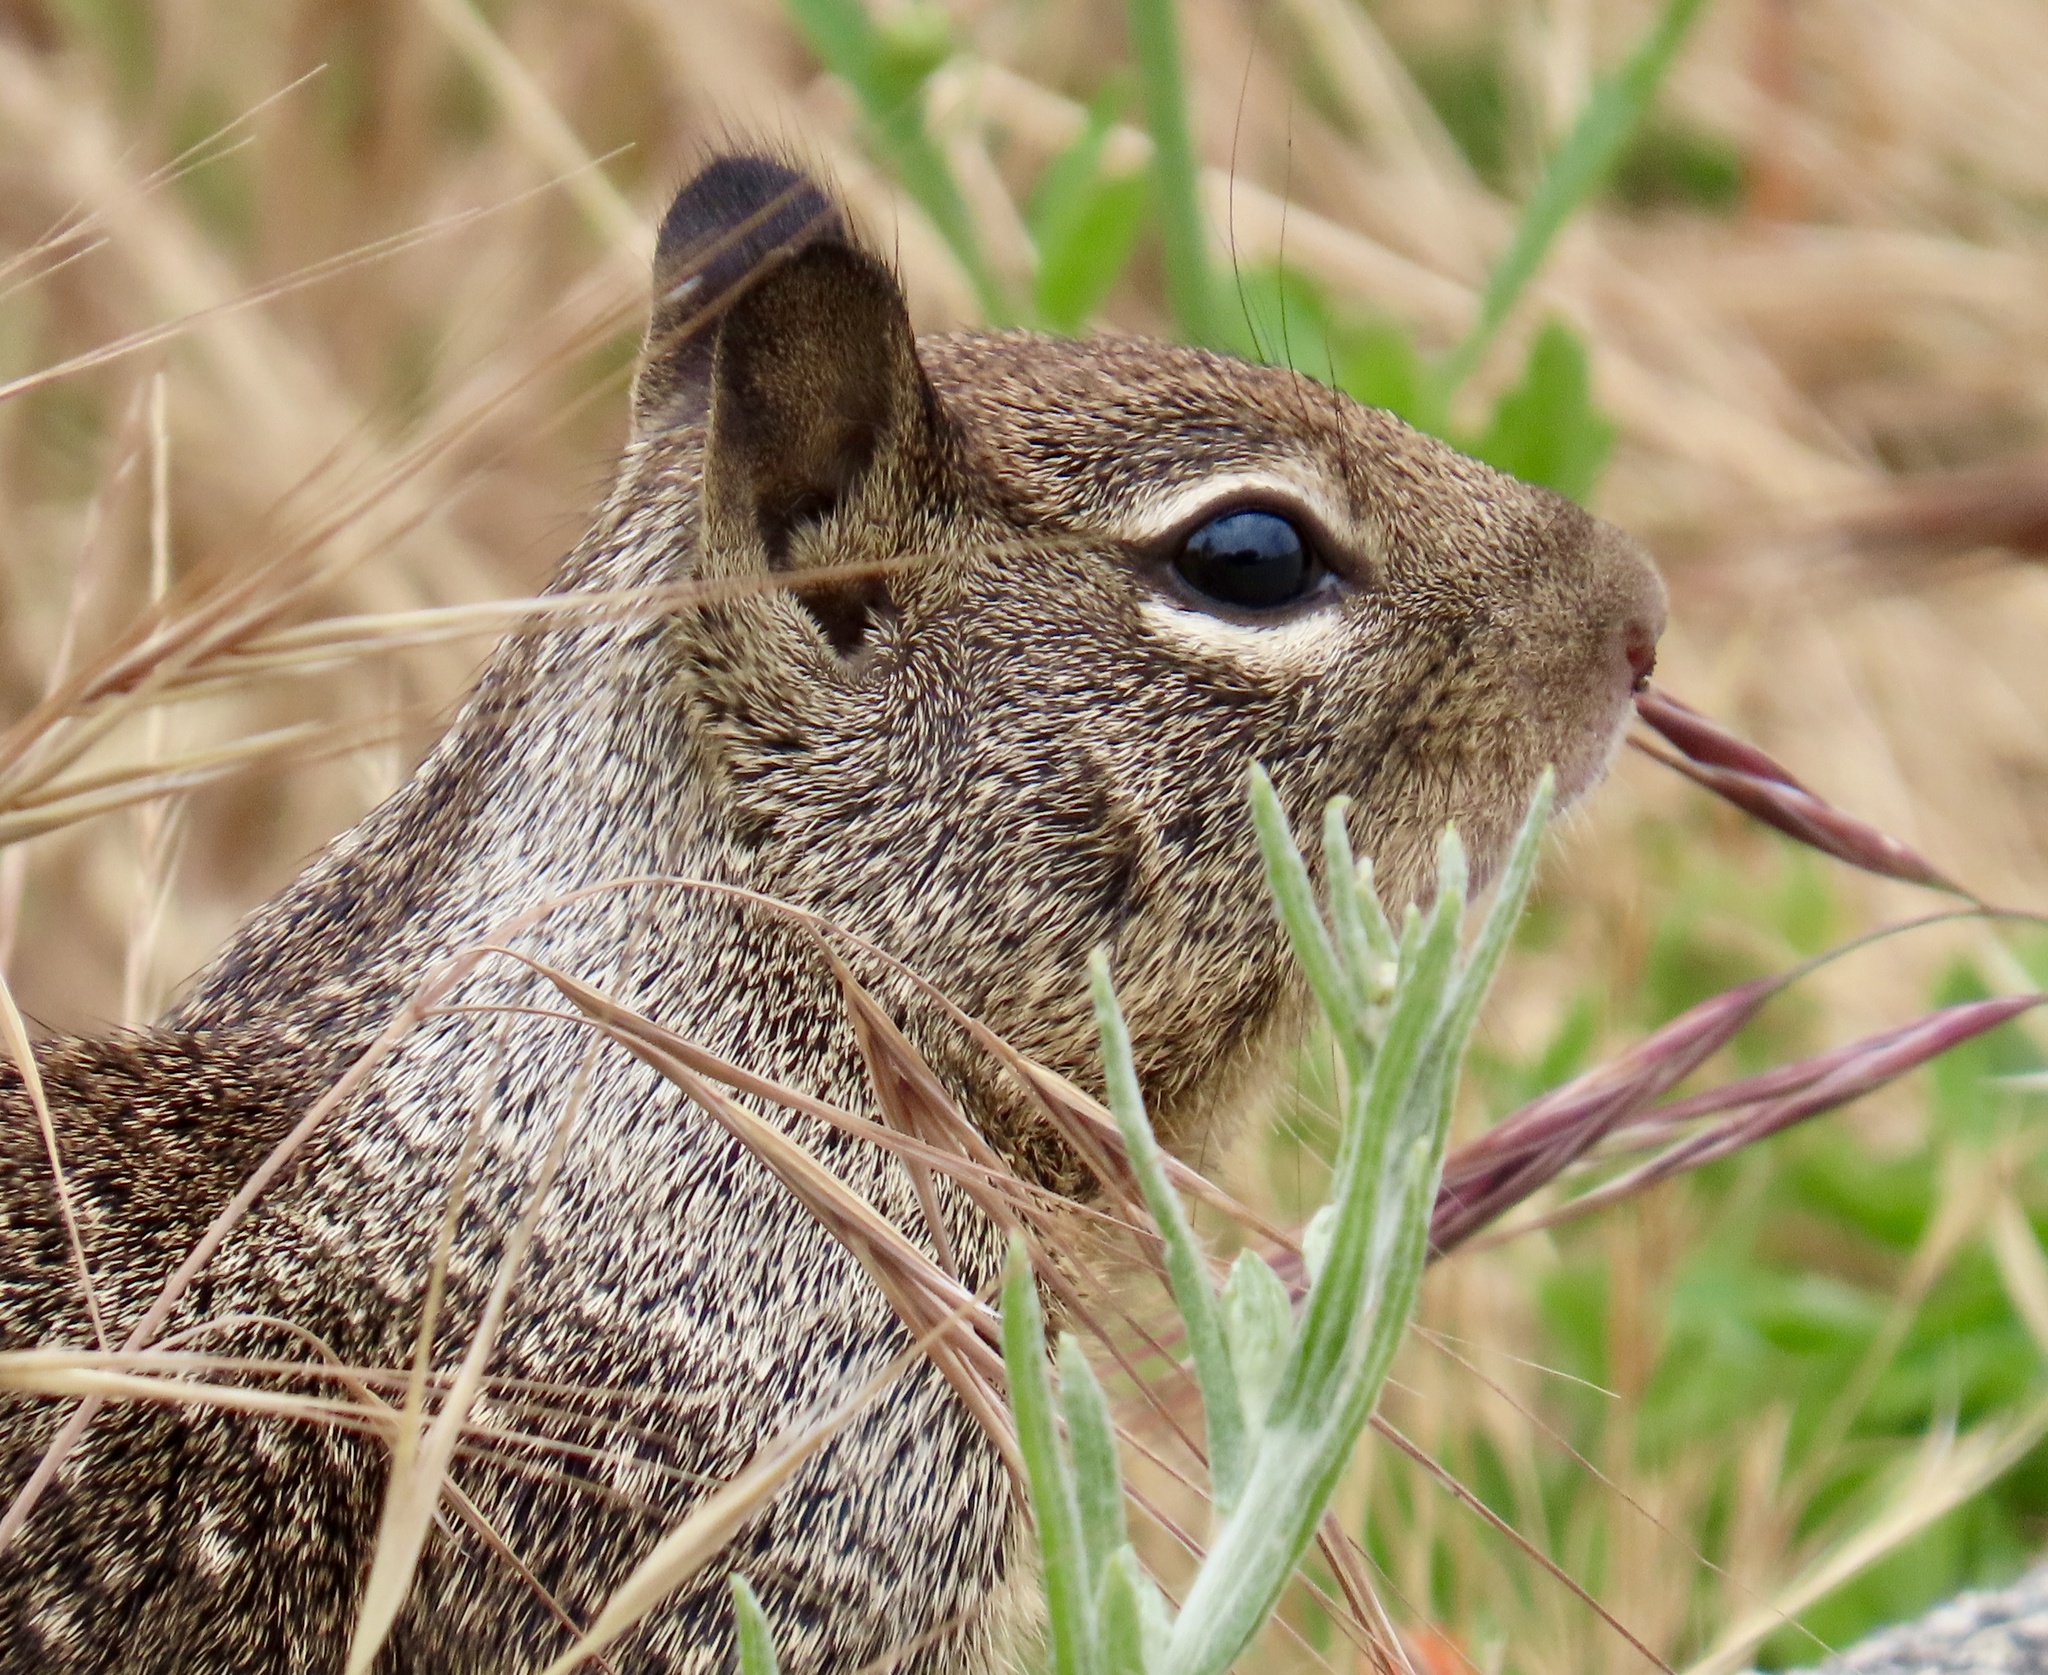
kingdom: Animalia
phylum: Chordata
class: Mammalia
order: Rodentia
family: Sciuridae
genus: Otospermophilus
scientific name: Otospermophilus beecheyi
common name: California ground squirrel
